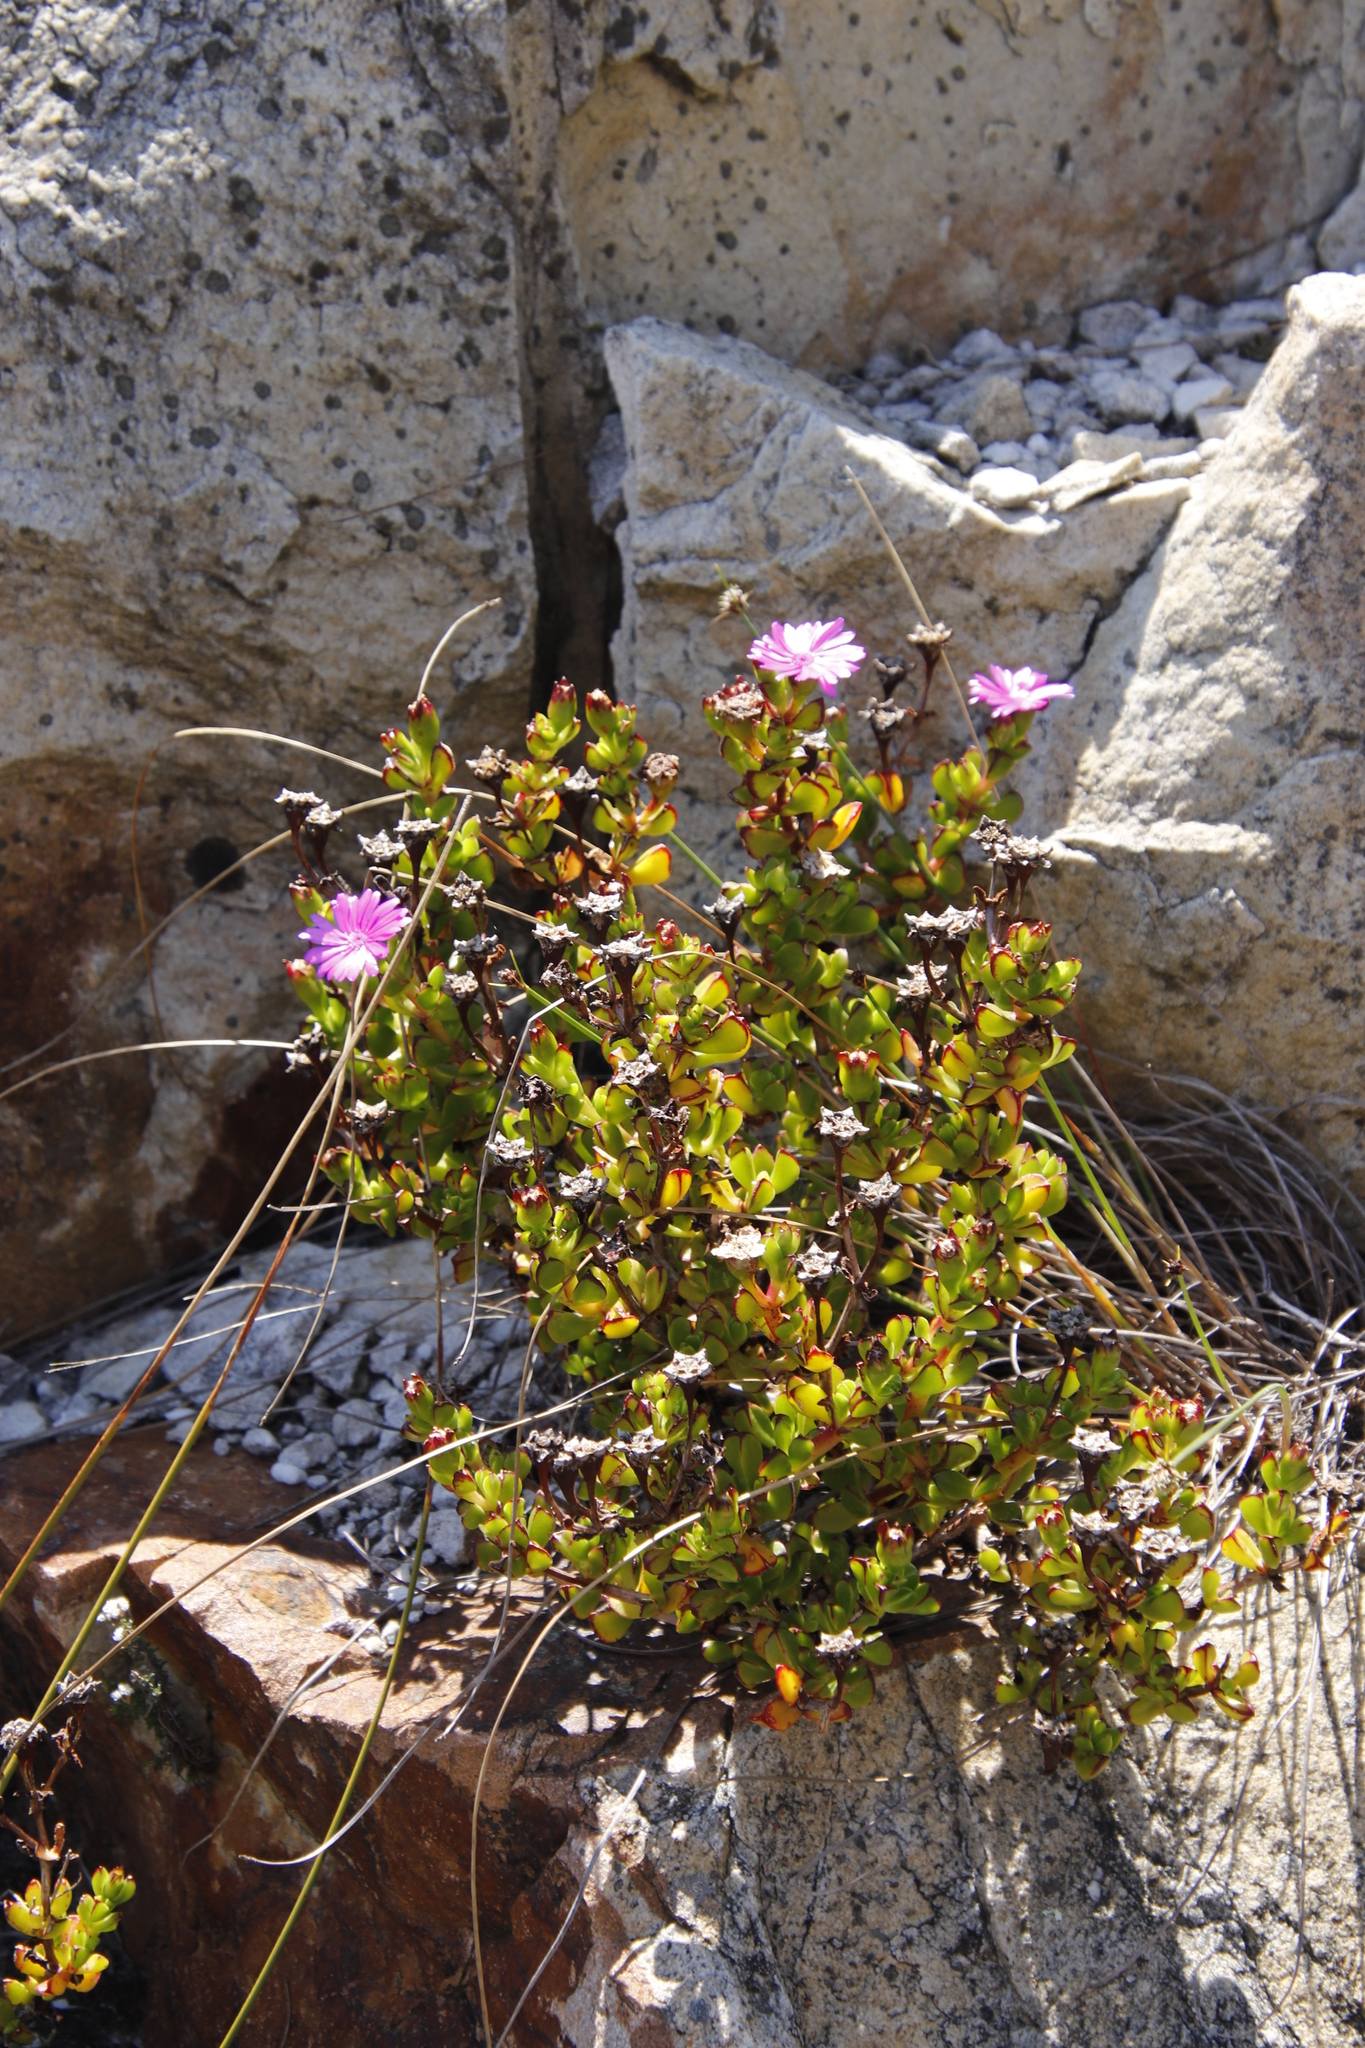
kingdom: Plantae
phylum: Tracheophyta
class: Magnoliopsida
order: Caryophyllales
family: Aizoaceae
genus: Erepsia
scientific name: Erepsia inclaudens
